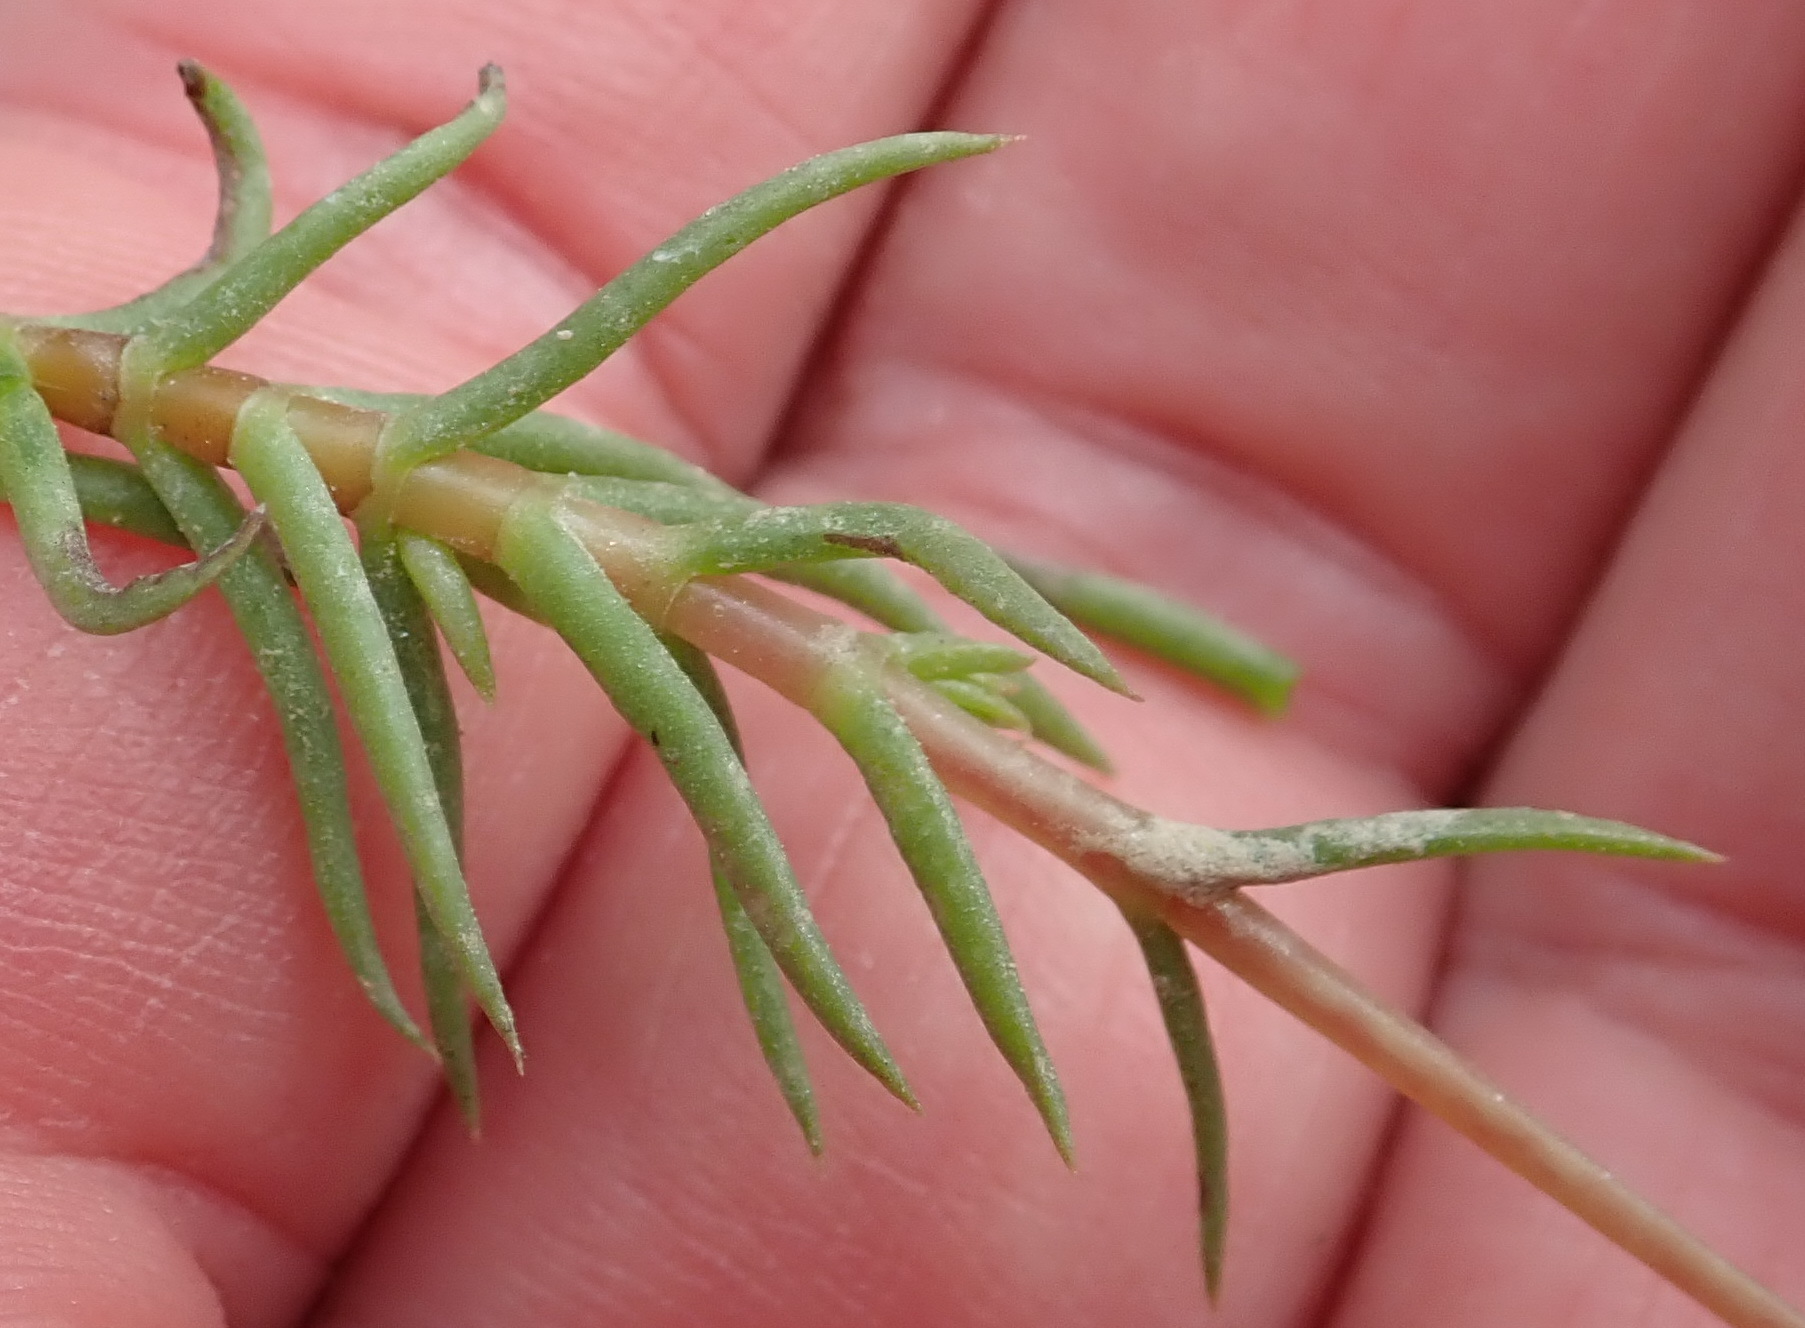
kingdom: Plantae
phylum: Tracheophyta
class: Magnoliopsida
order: Saxifragales
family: Crassulaceae
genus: Crassula
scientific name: Crassula tetragona
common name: Pygmyweed
